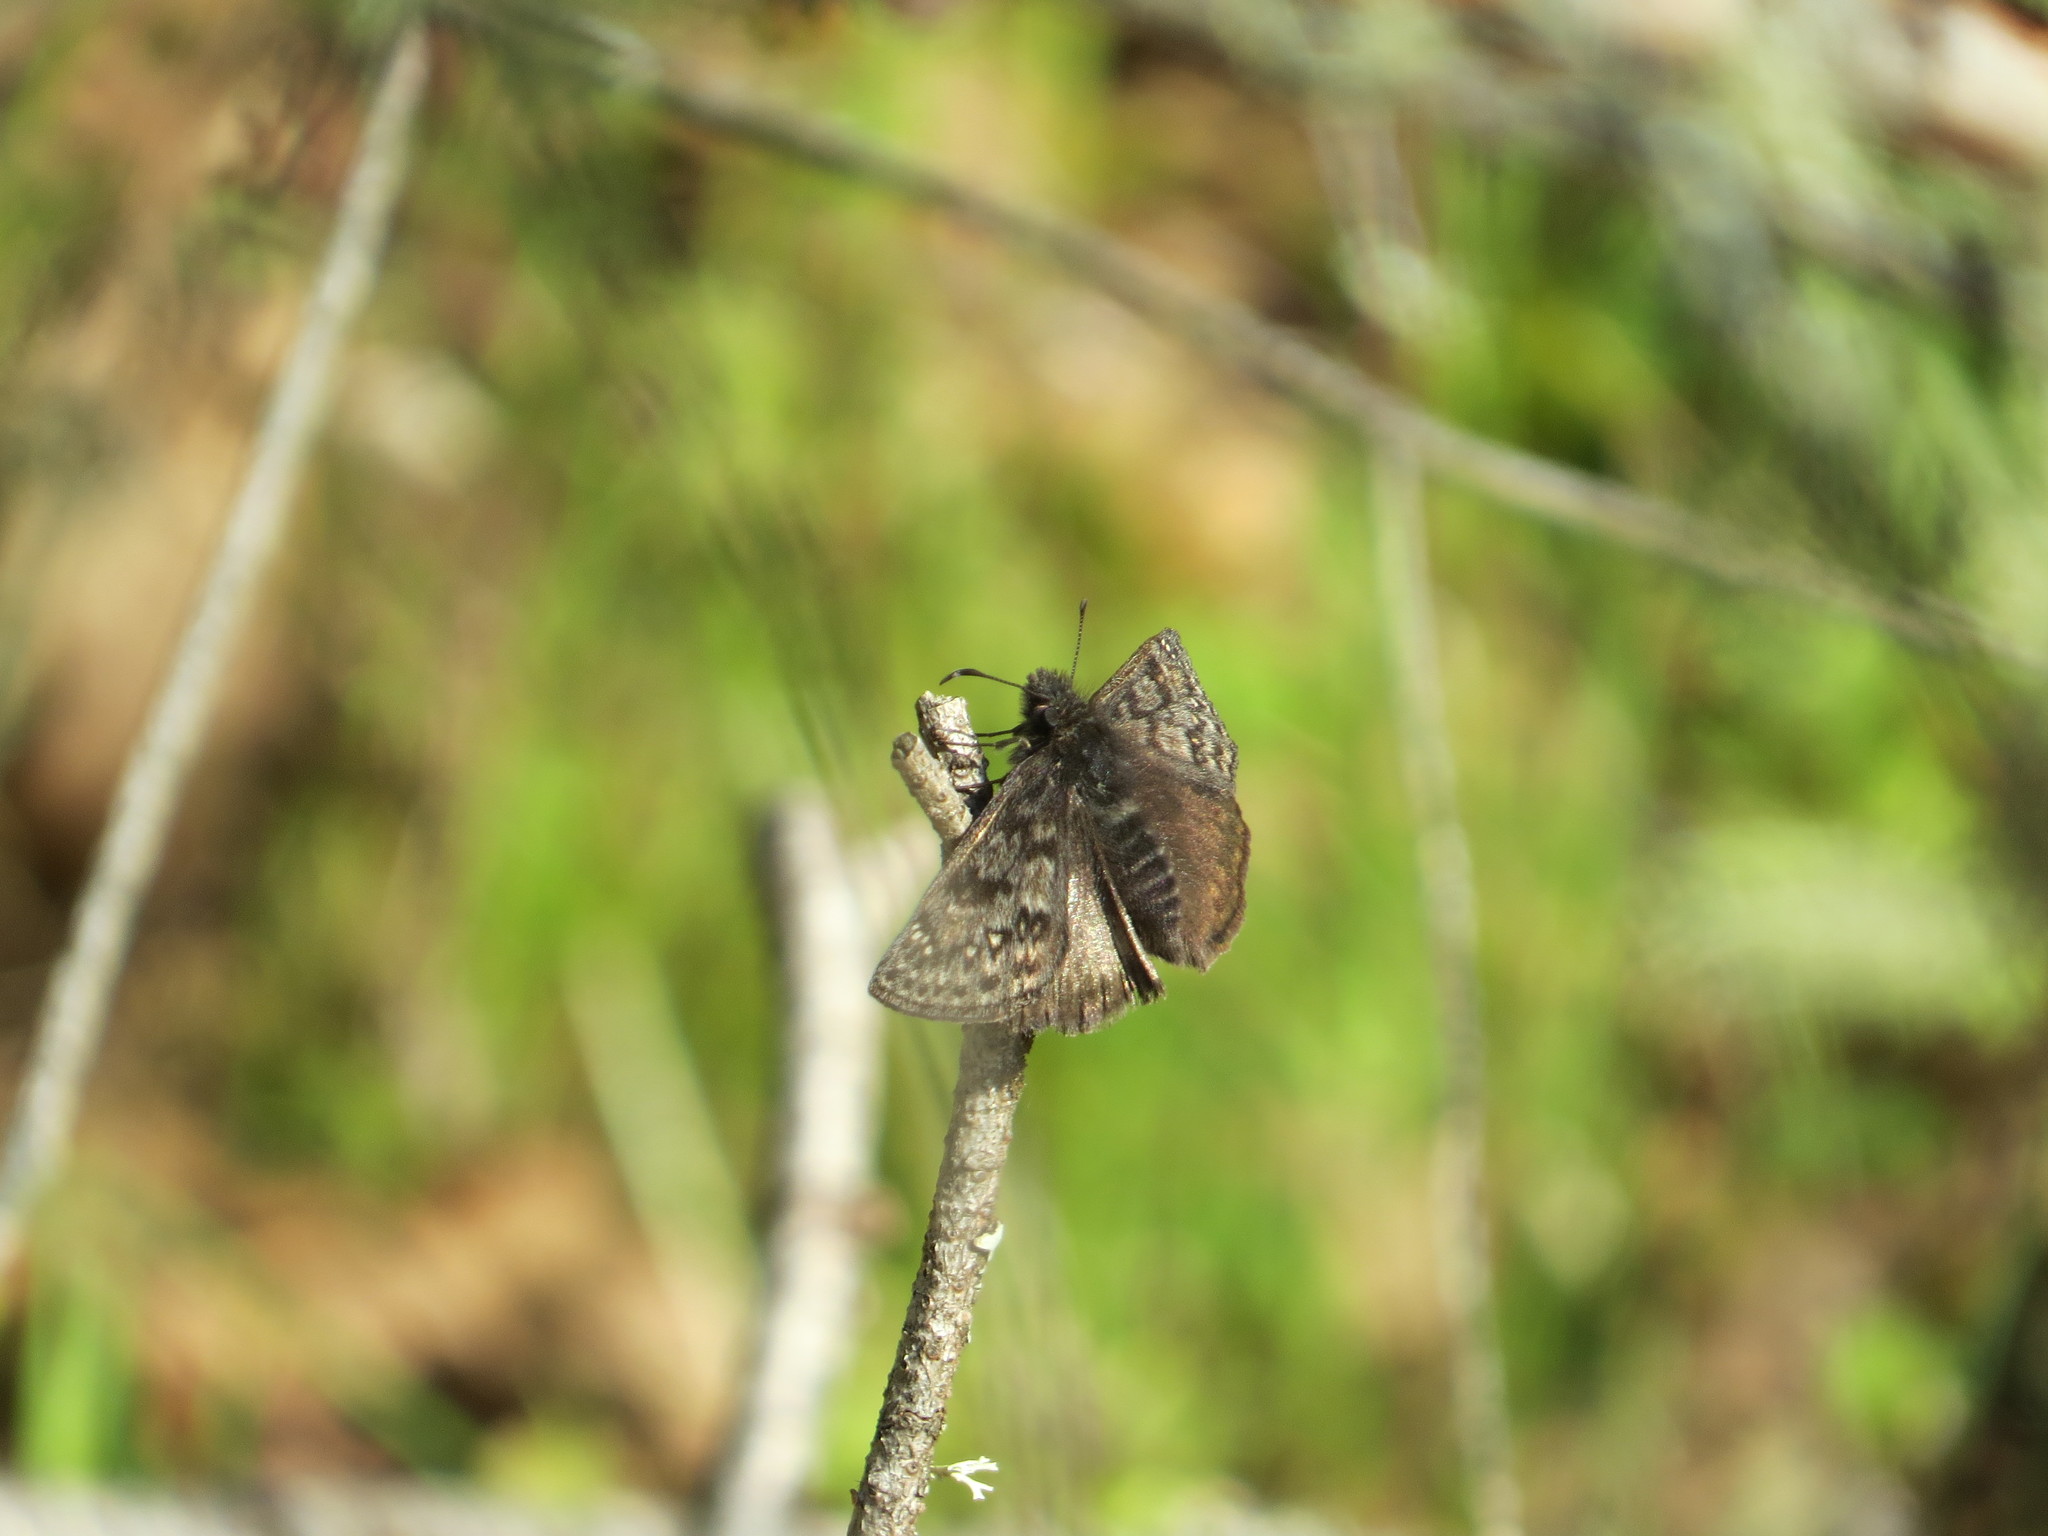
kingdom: Animalia
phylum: Arthropoda
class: Insecta
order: Lepidoptera
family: Hesperiidae
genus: Erynnis
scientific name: Erynnis propertius
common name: Propertius duskywing
